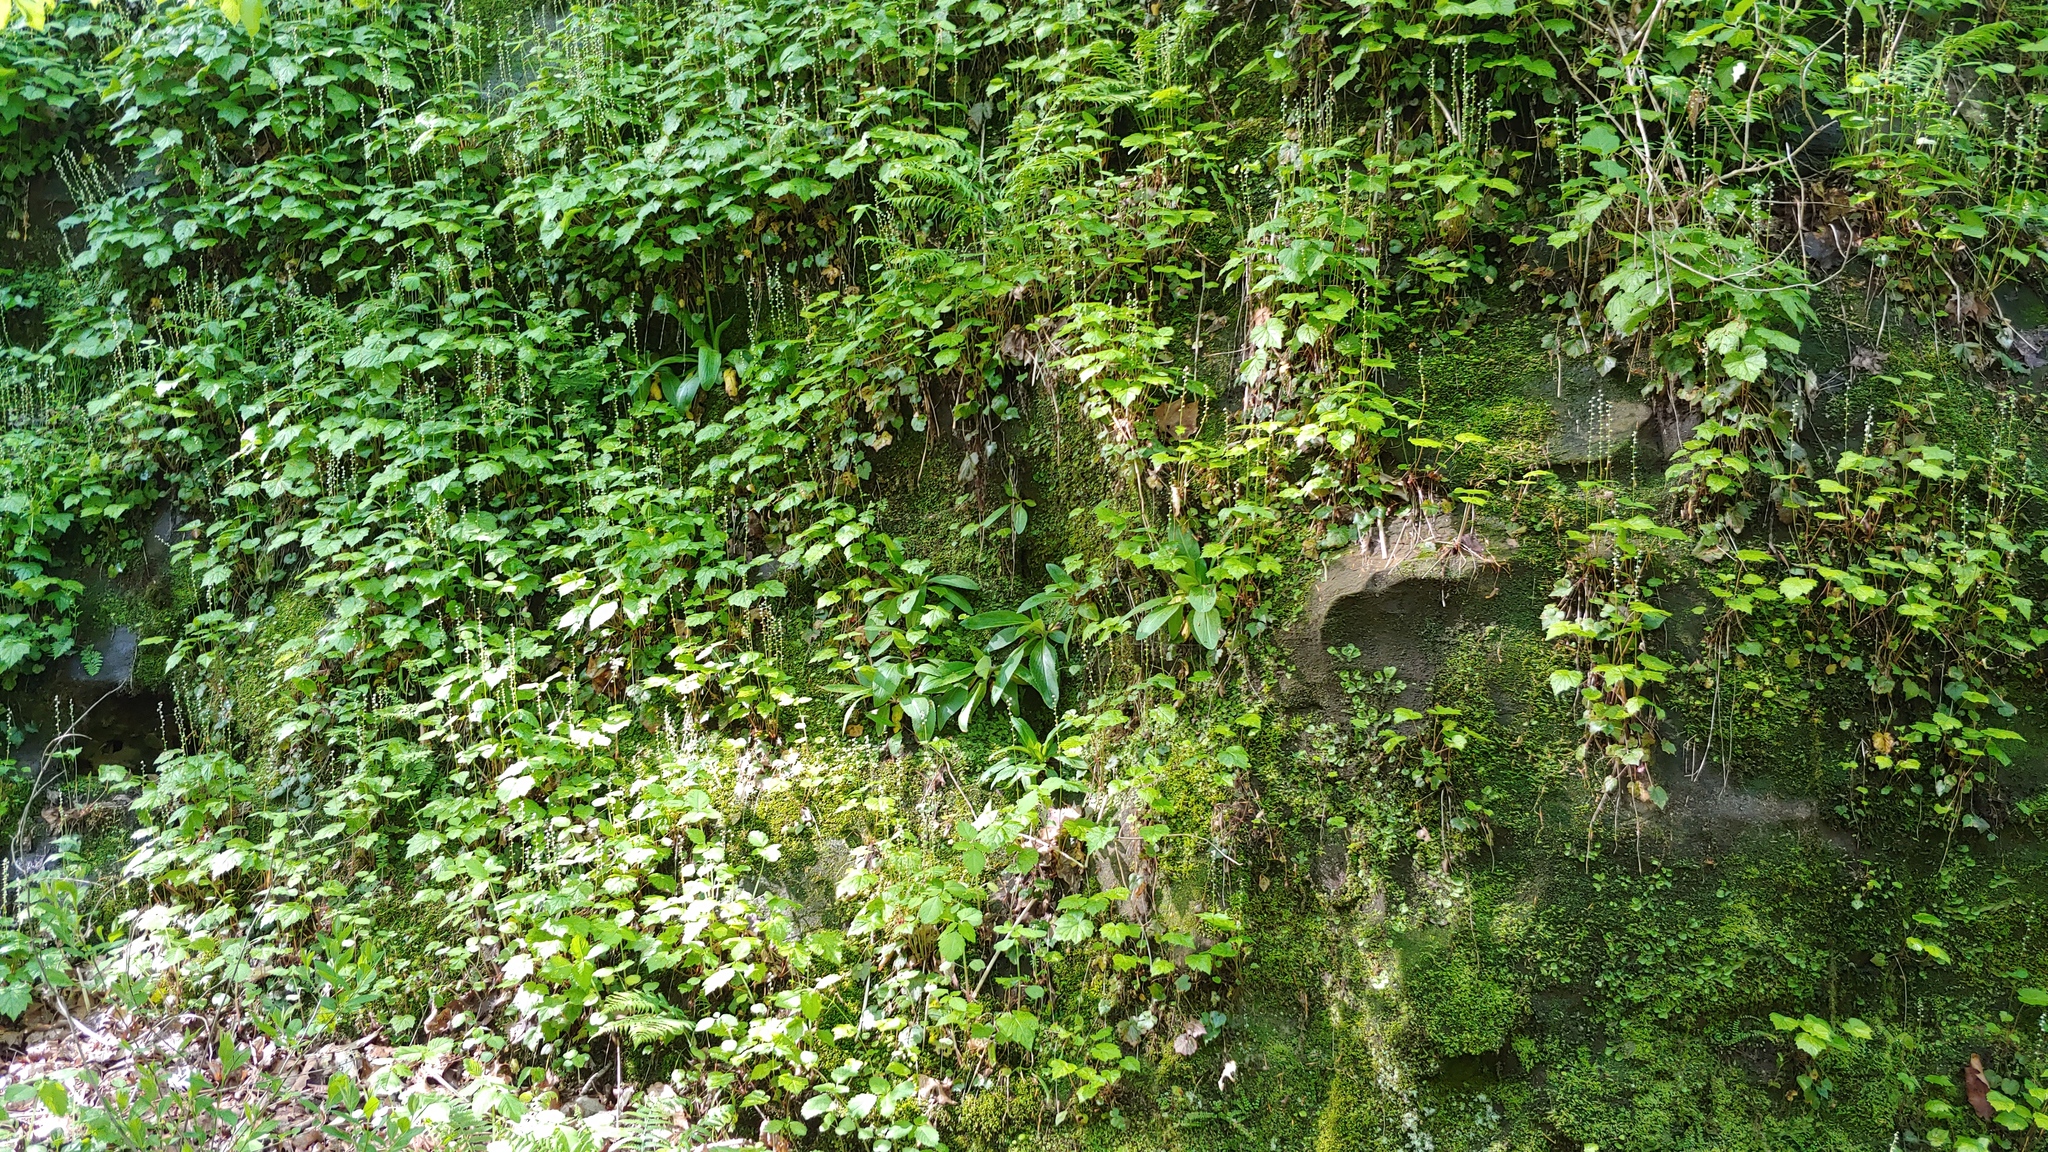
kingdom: Plantae
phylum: Tracheophyta
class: Magnoliopsida
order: Saxifragales
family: Saxifragaceae
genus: Mitella
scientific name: Mitella diphylla
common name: Coolwort
